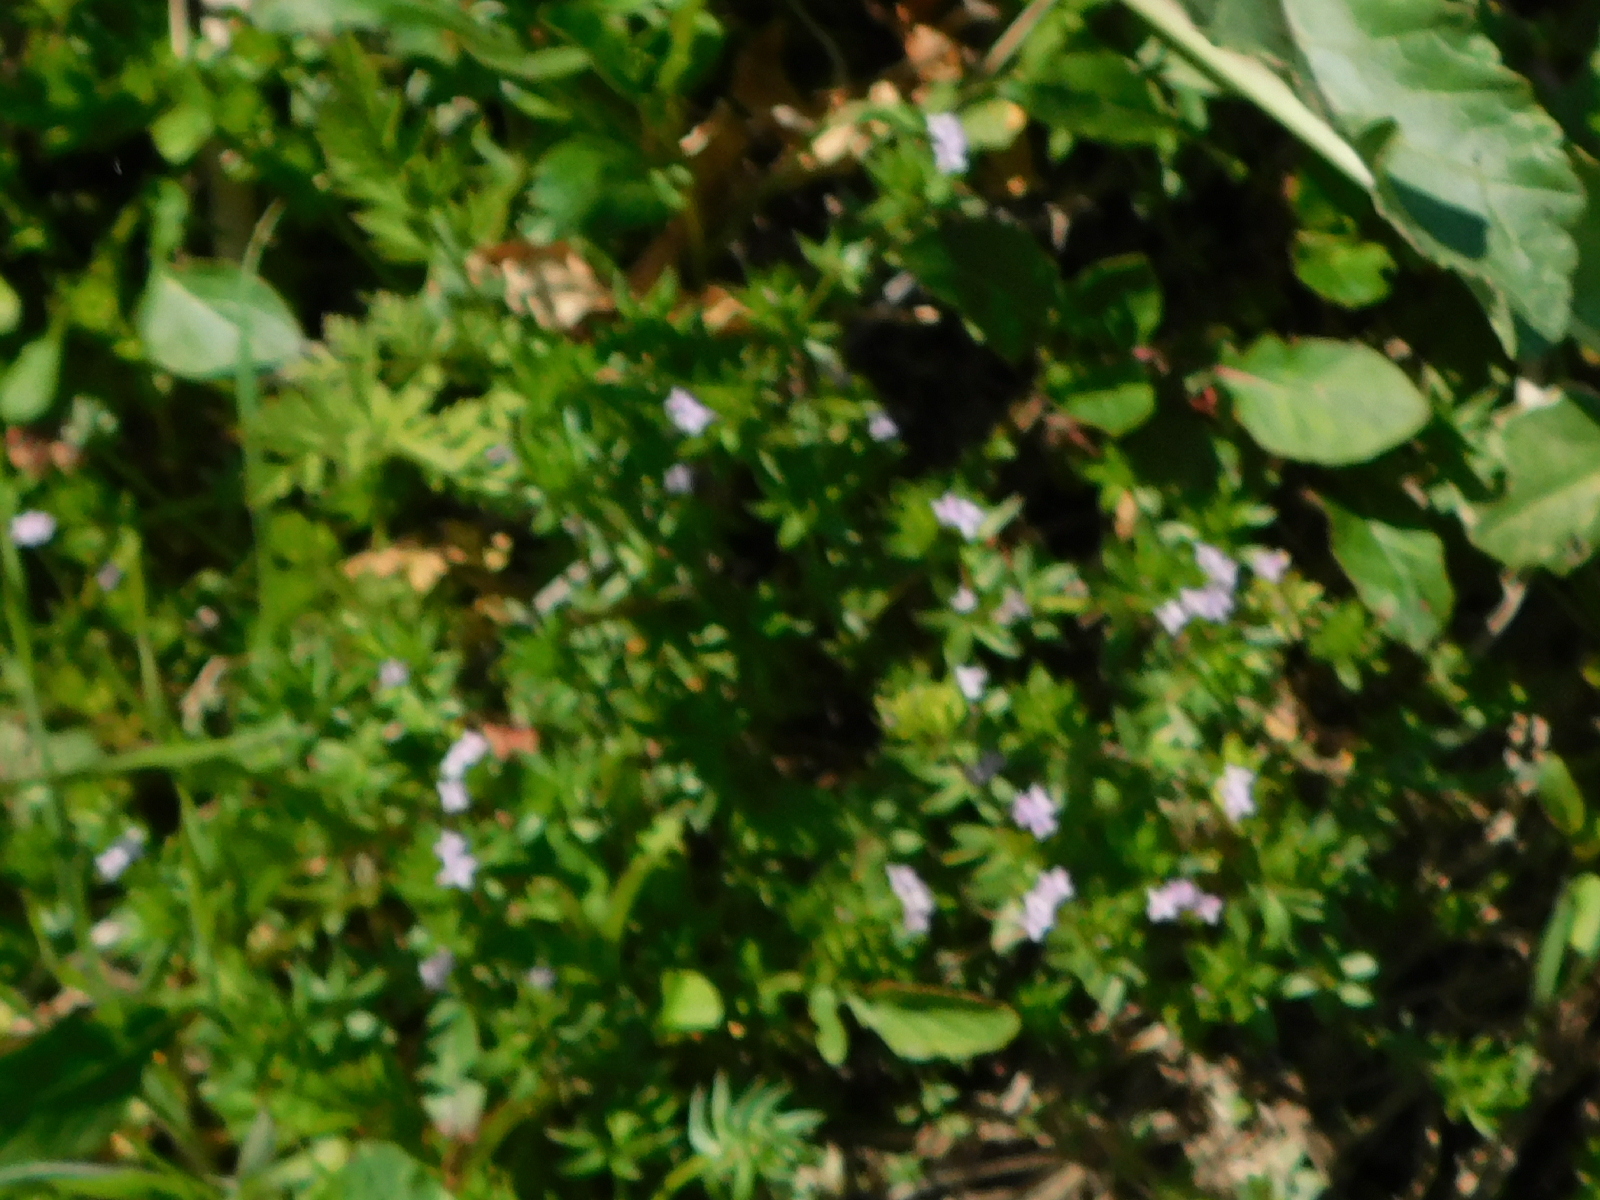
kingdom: Plantae
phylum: Tracheophyta
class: Magnoliopsida
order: Gentianales
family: Rubiaceae
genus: Sherardia
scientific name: Sherardia arvensis
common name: Field madder
